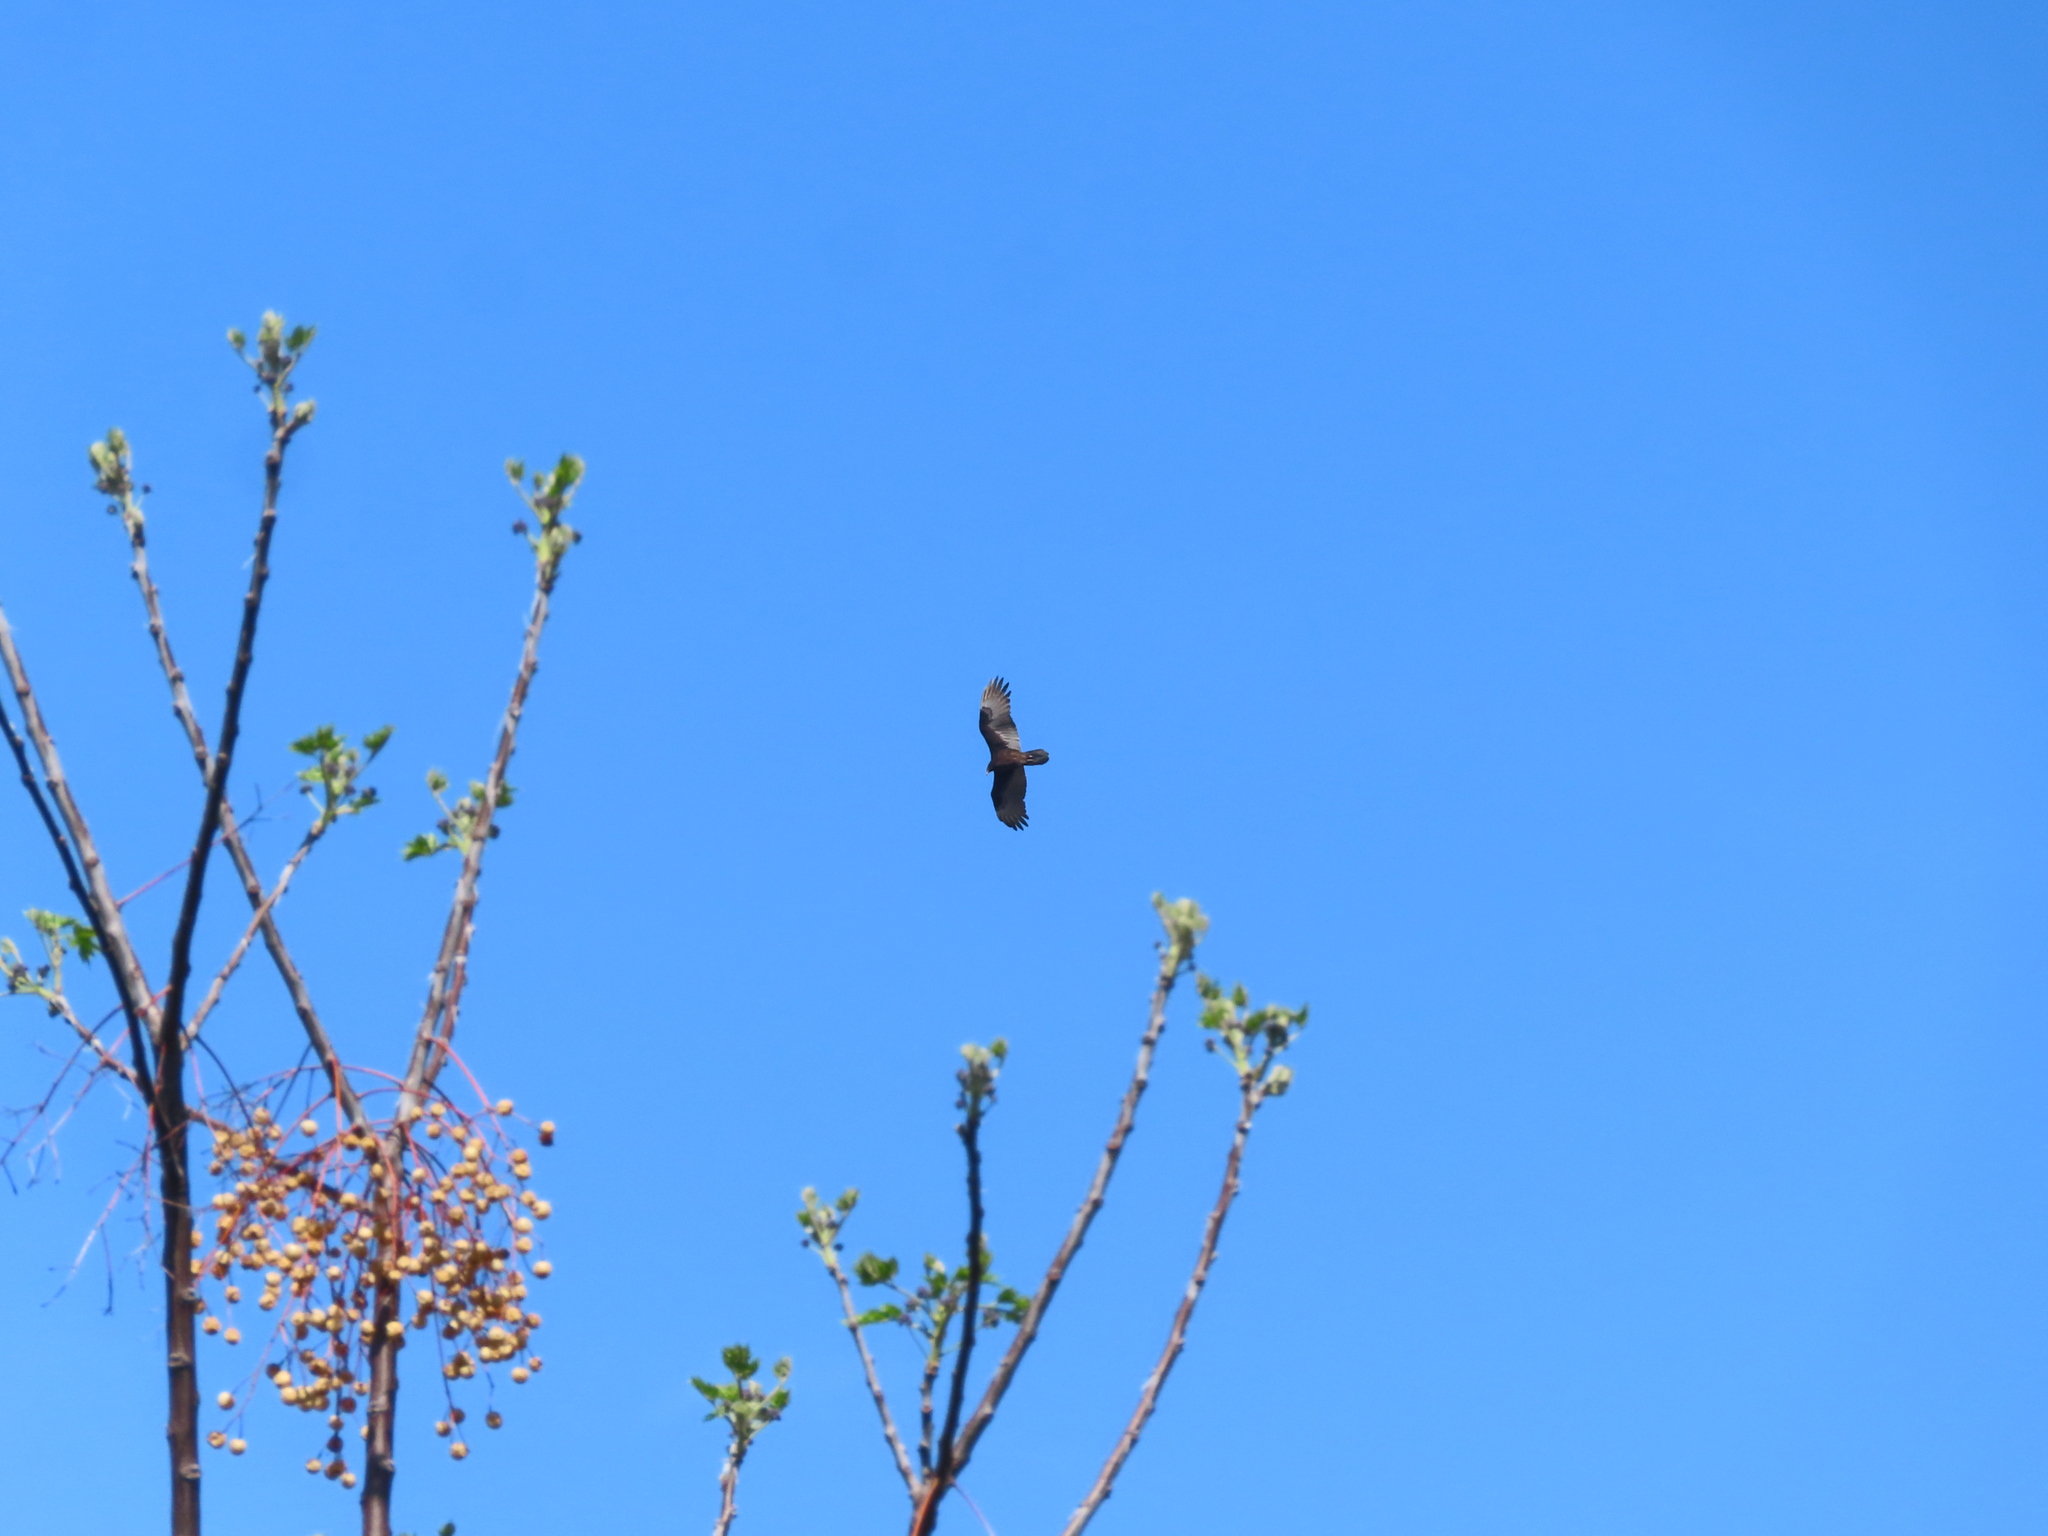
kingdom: Animalia
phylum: Chordata
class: Aves
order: Accipitriformes
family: Cathartidae
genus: Cathartes
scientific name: Cathartes aura
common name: Turkey vulture
